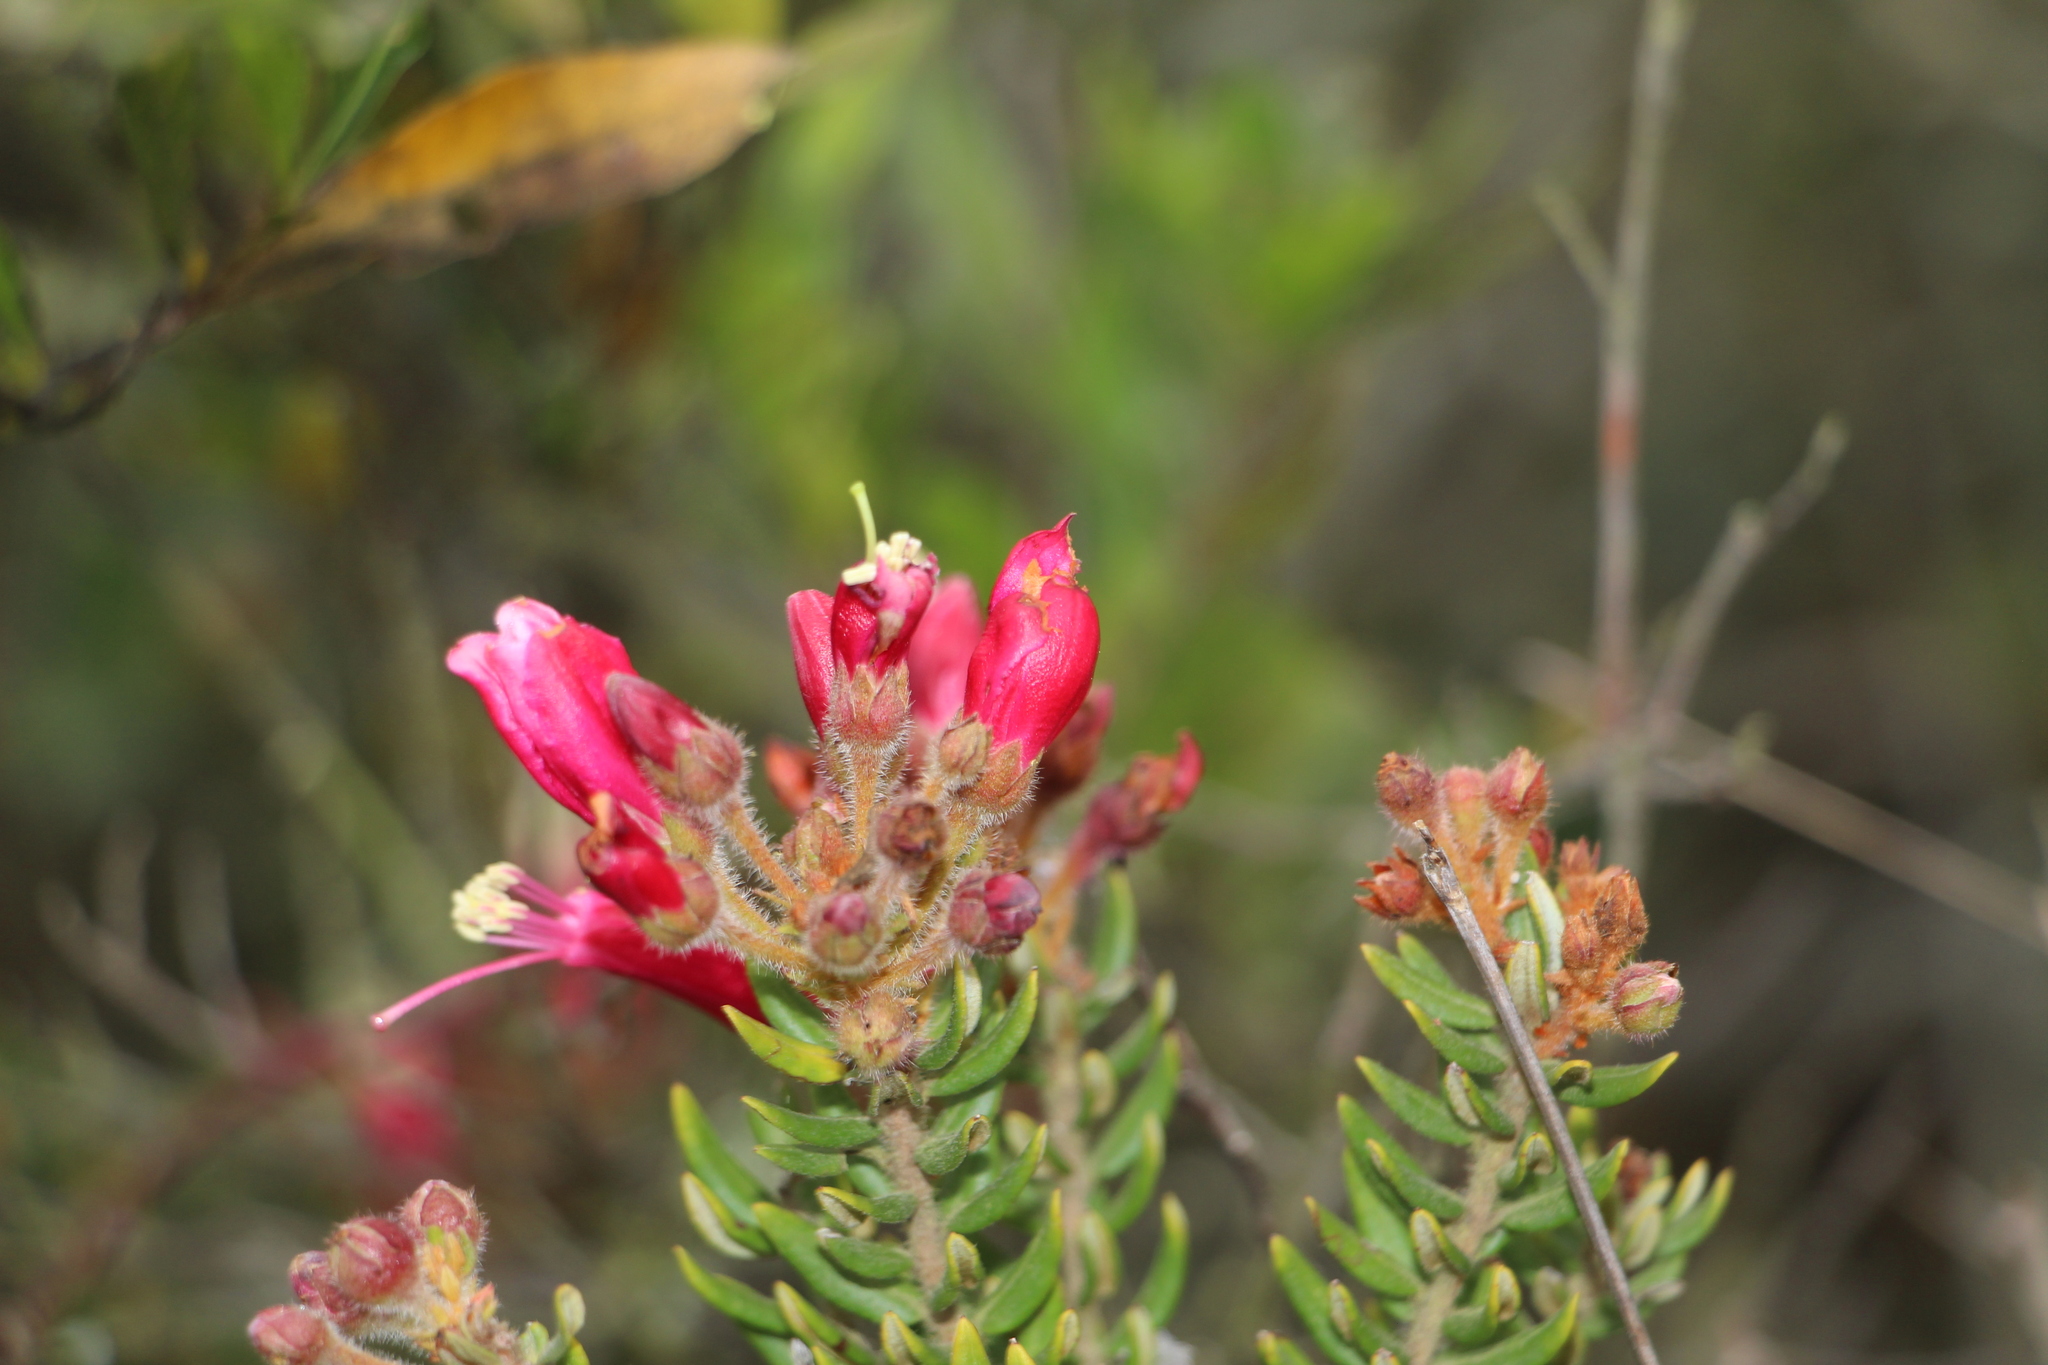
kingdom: Plantae
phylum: Tracheophyta
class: Magnoliopsida
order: Ericales
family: Ericaceae
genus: Bejaria
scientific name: Bejaria resinosa
